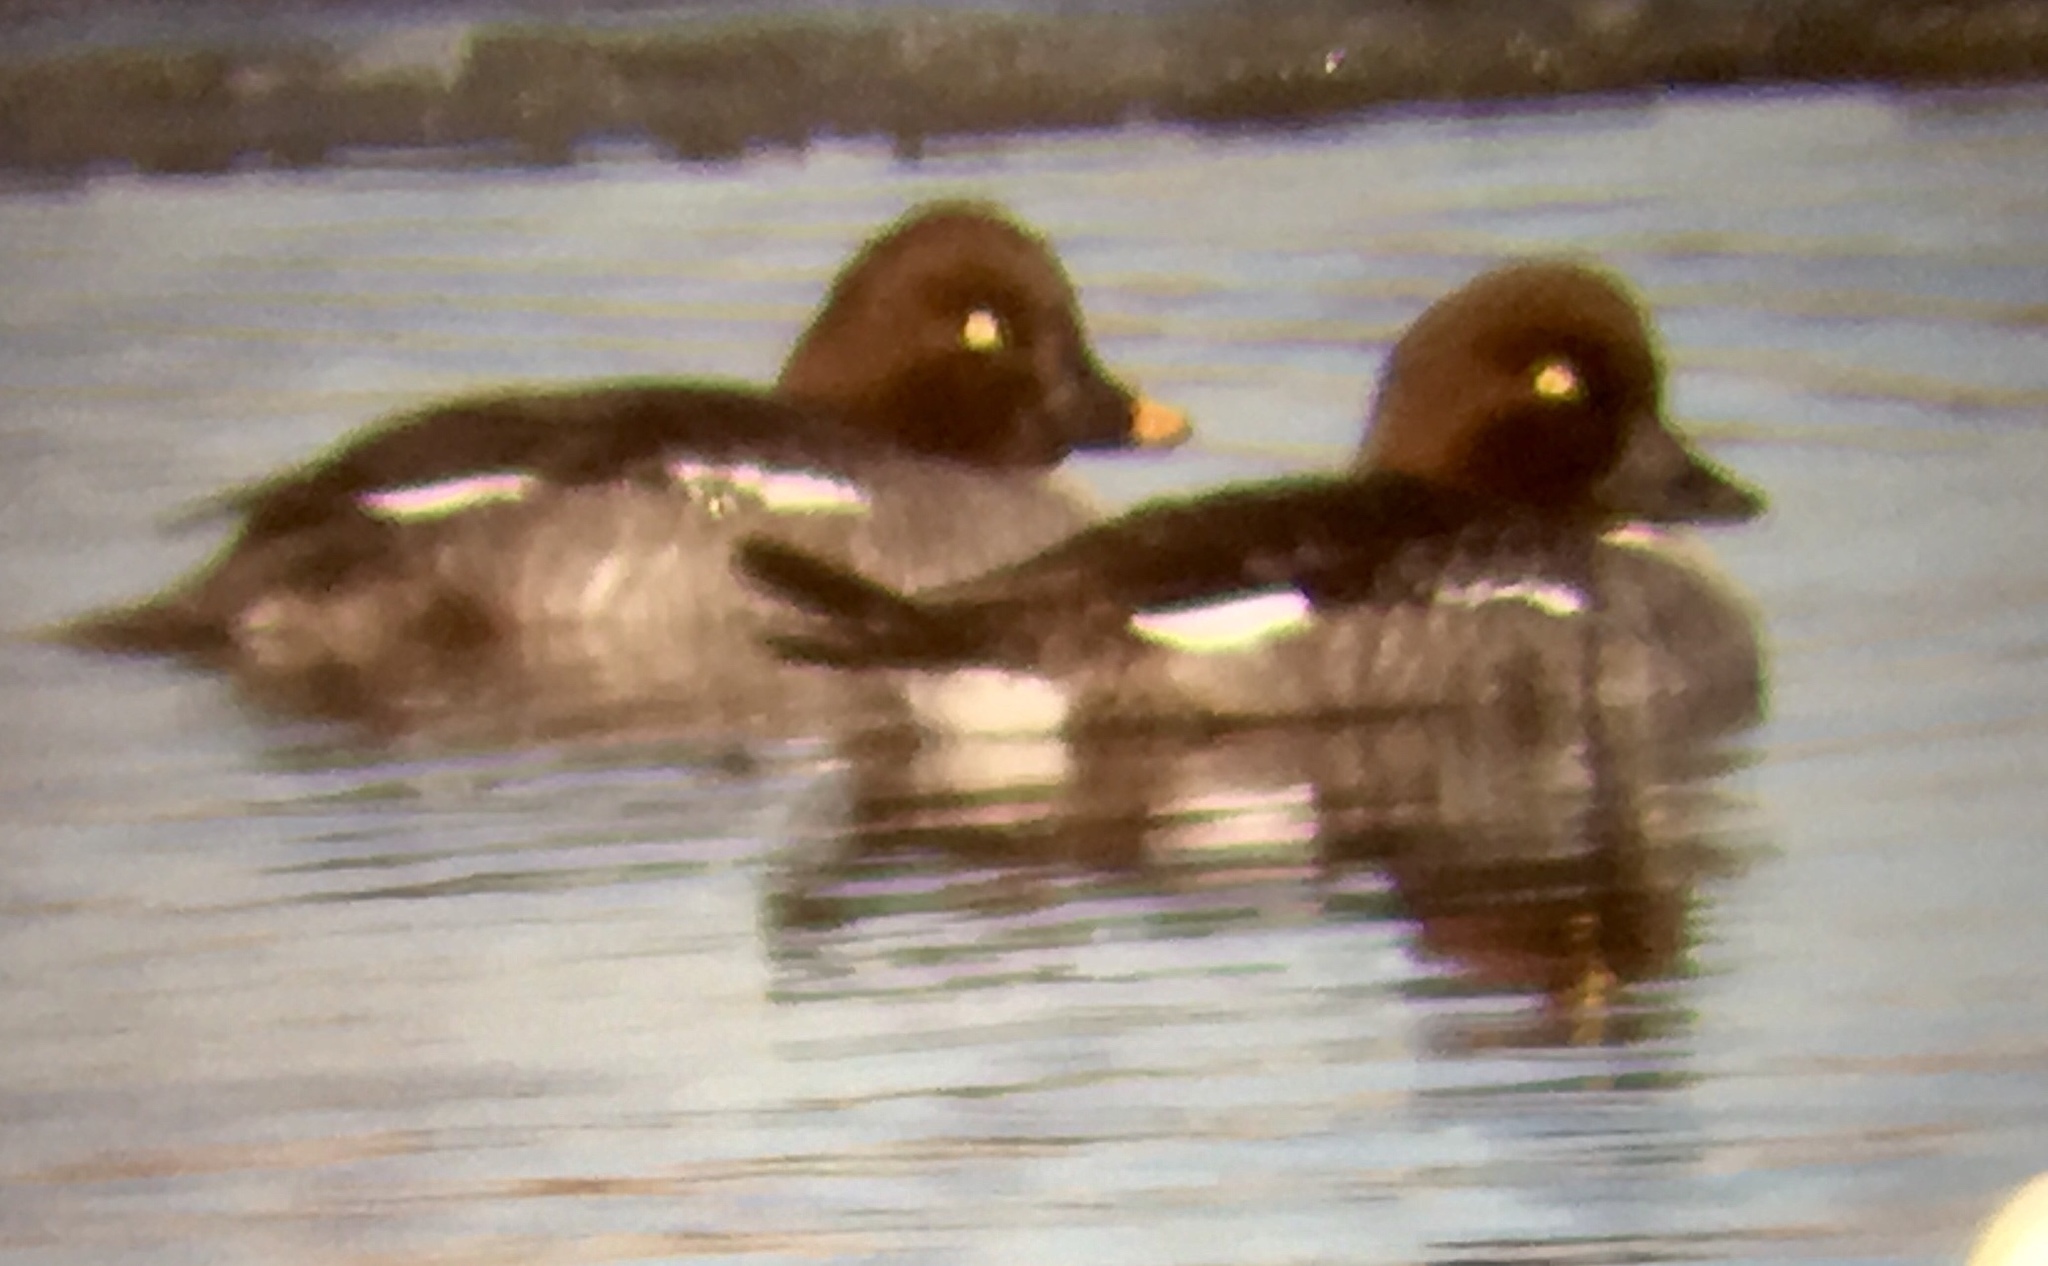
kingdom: Animalia
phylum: Chordata
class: Aves
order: Anseriformes
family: Anatidae
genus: Bucephala
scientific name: Bucephala clangula
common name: Common goldeneye
